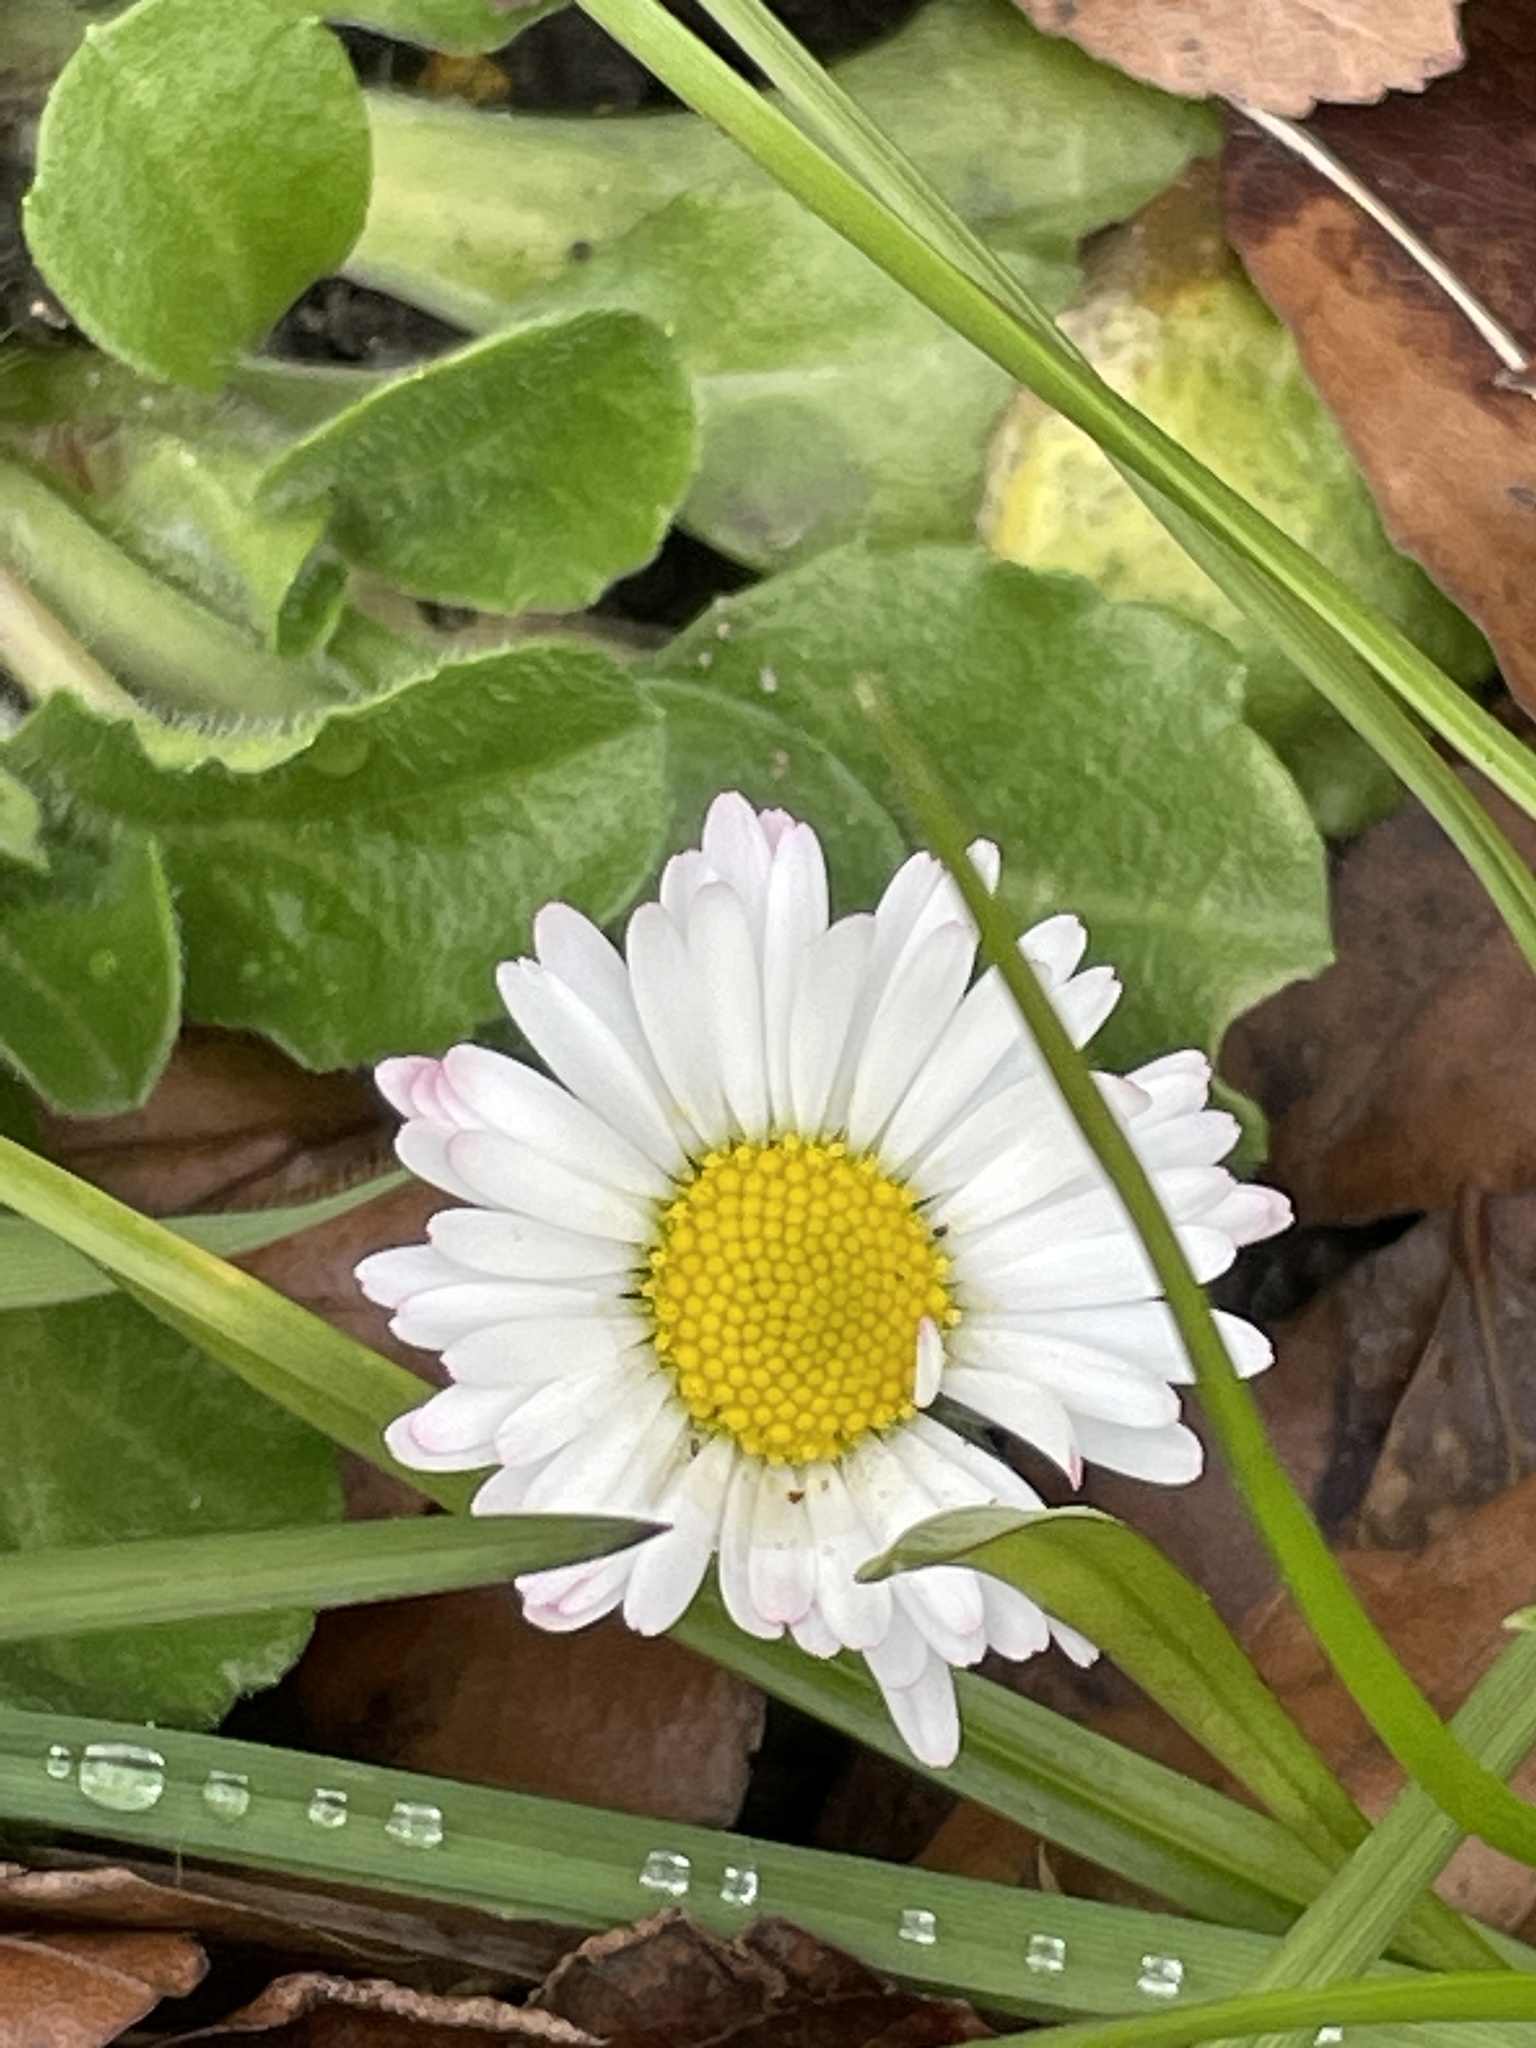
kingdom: Plantae
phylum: Tracheophyta
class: Magnoliopsida
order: Asterales
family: Asteraceae
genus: Bellis
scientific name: Bellis perennis
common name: Lawndaisy
